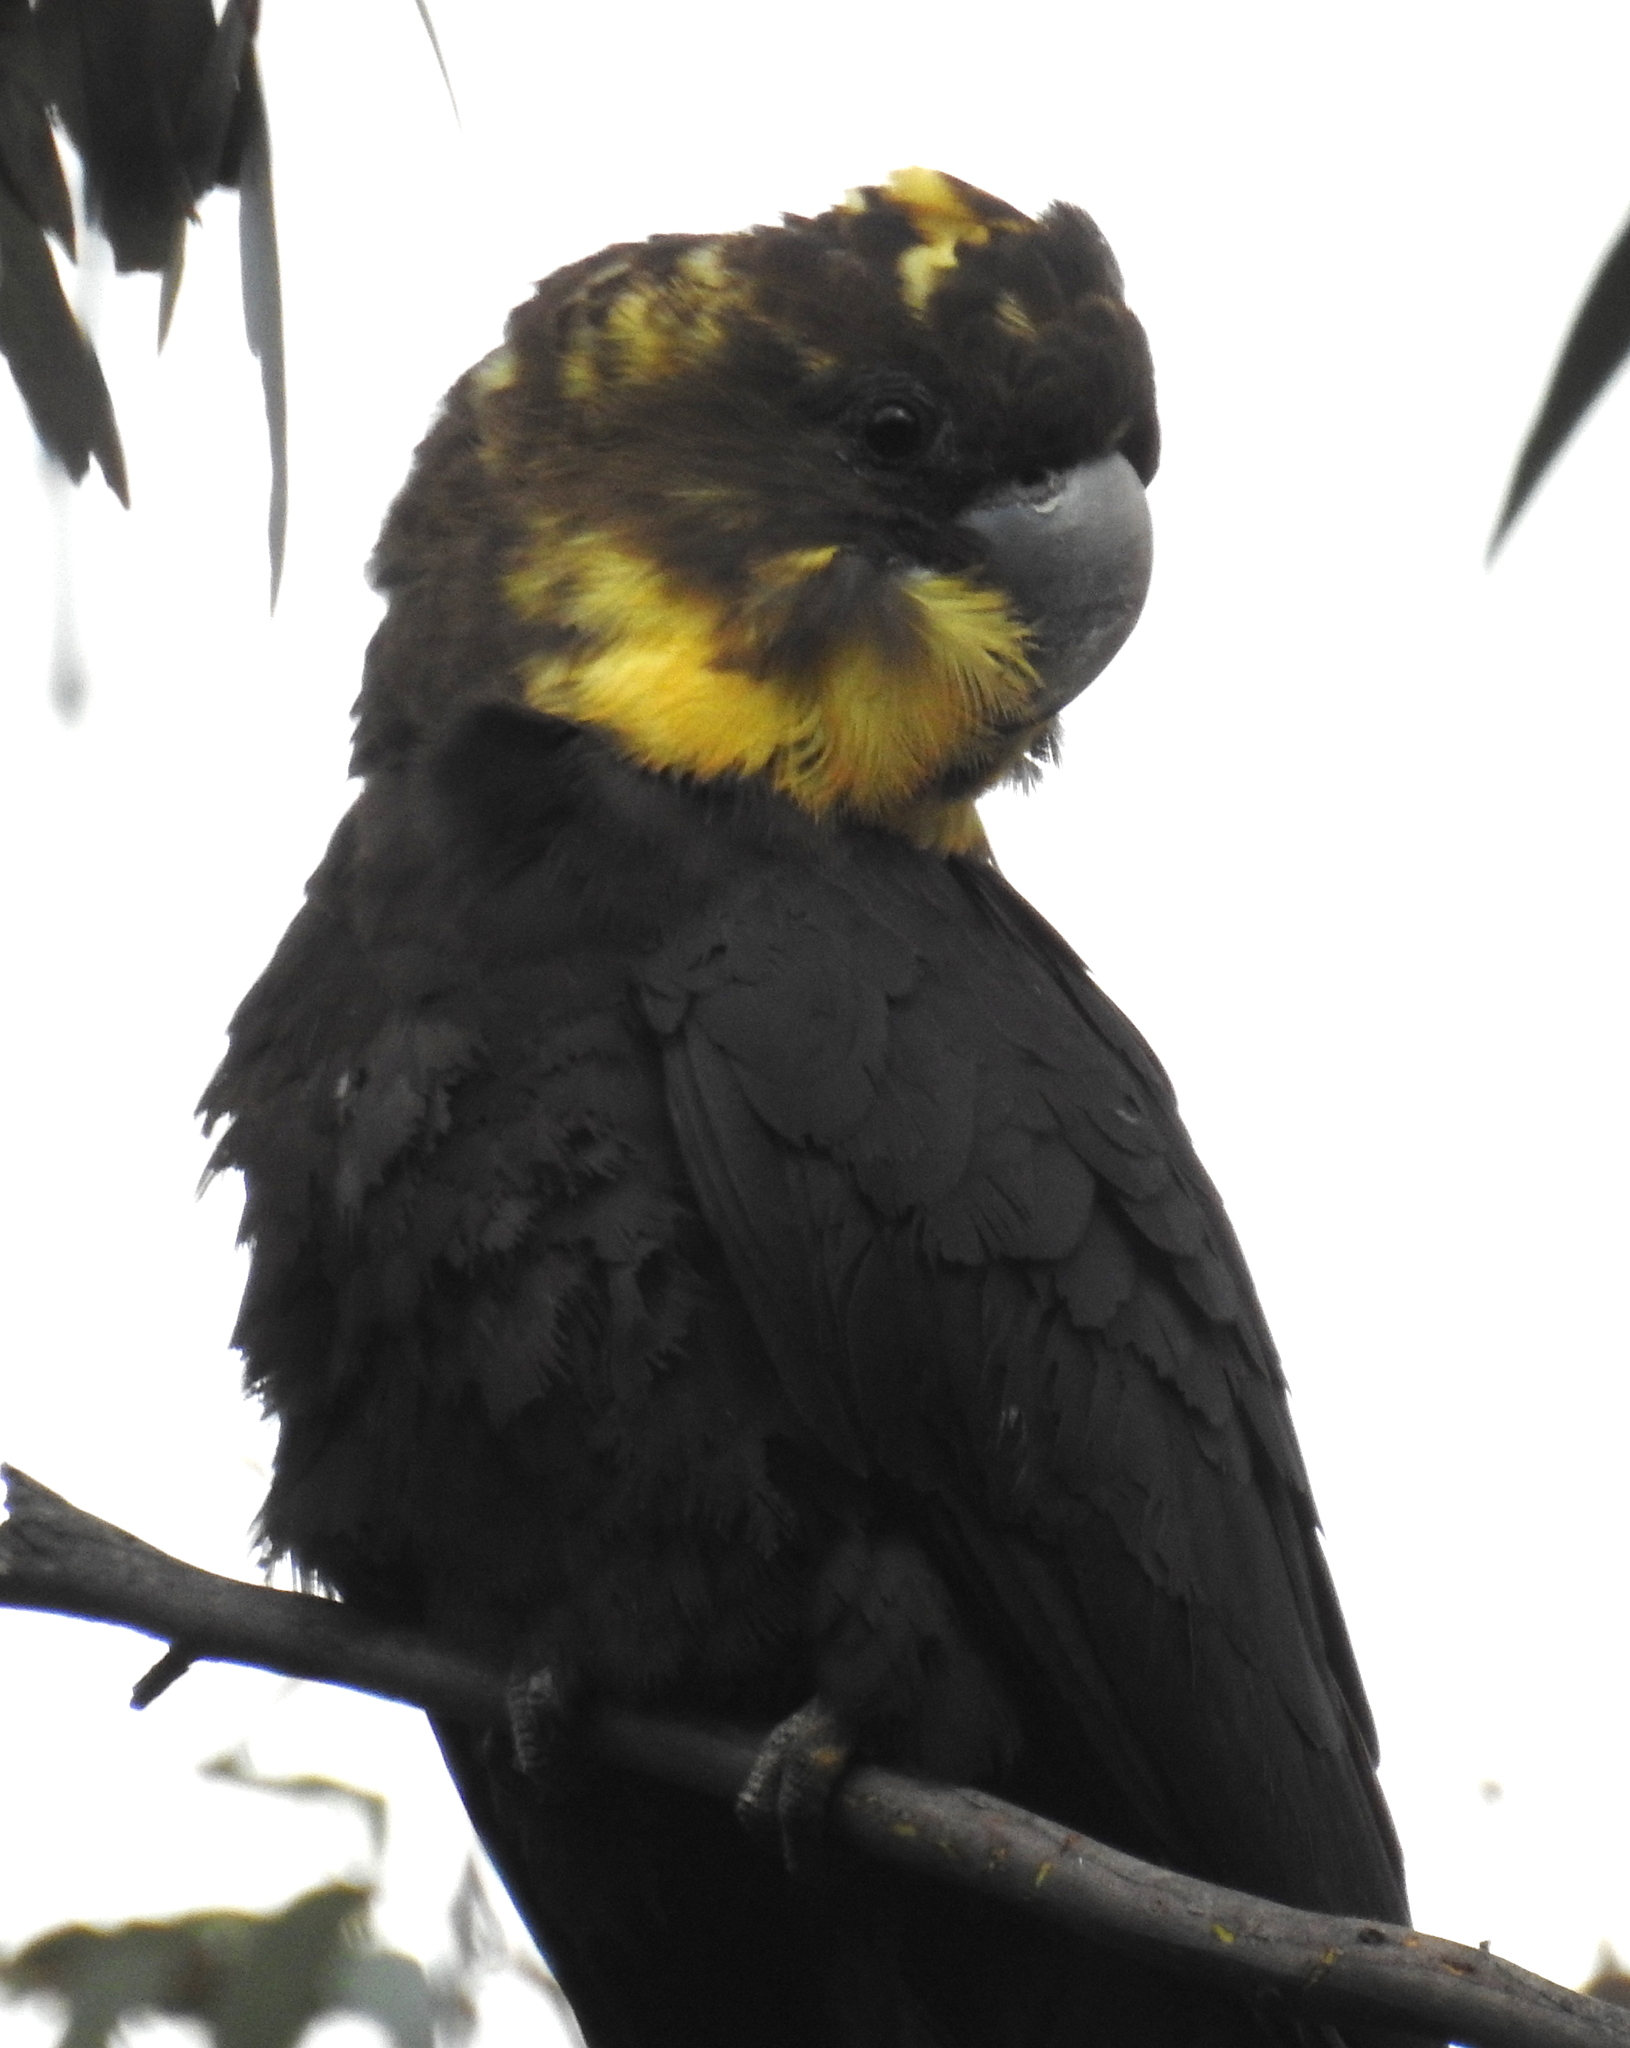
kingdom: Animalia
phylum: Chordata
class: Aves
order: Psittaciformes
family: Psittacidae
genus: Calyptorhynchus
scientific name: Calyptorhynchus lathami
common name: Glossy black cockatoo
